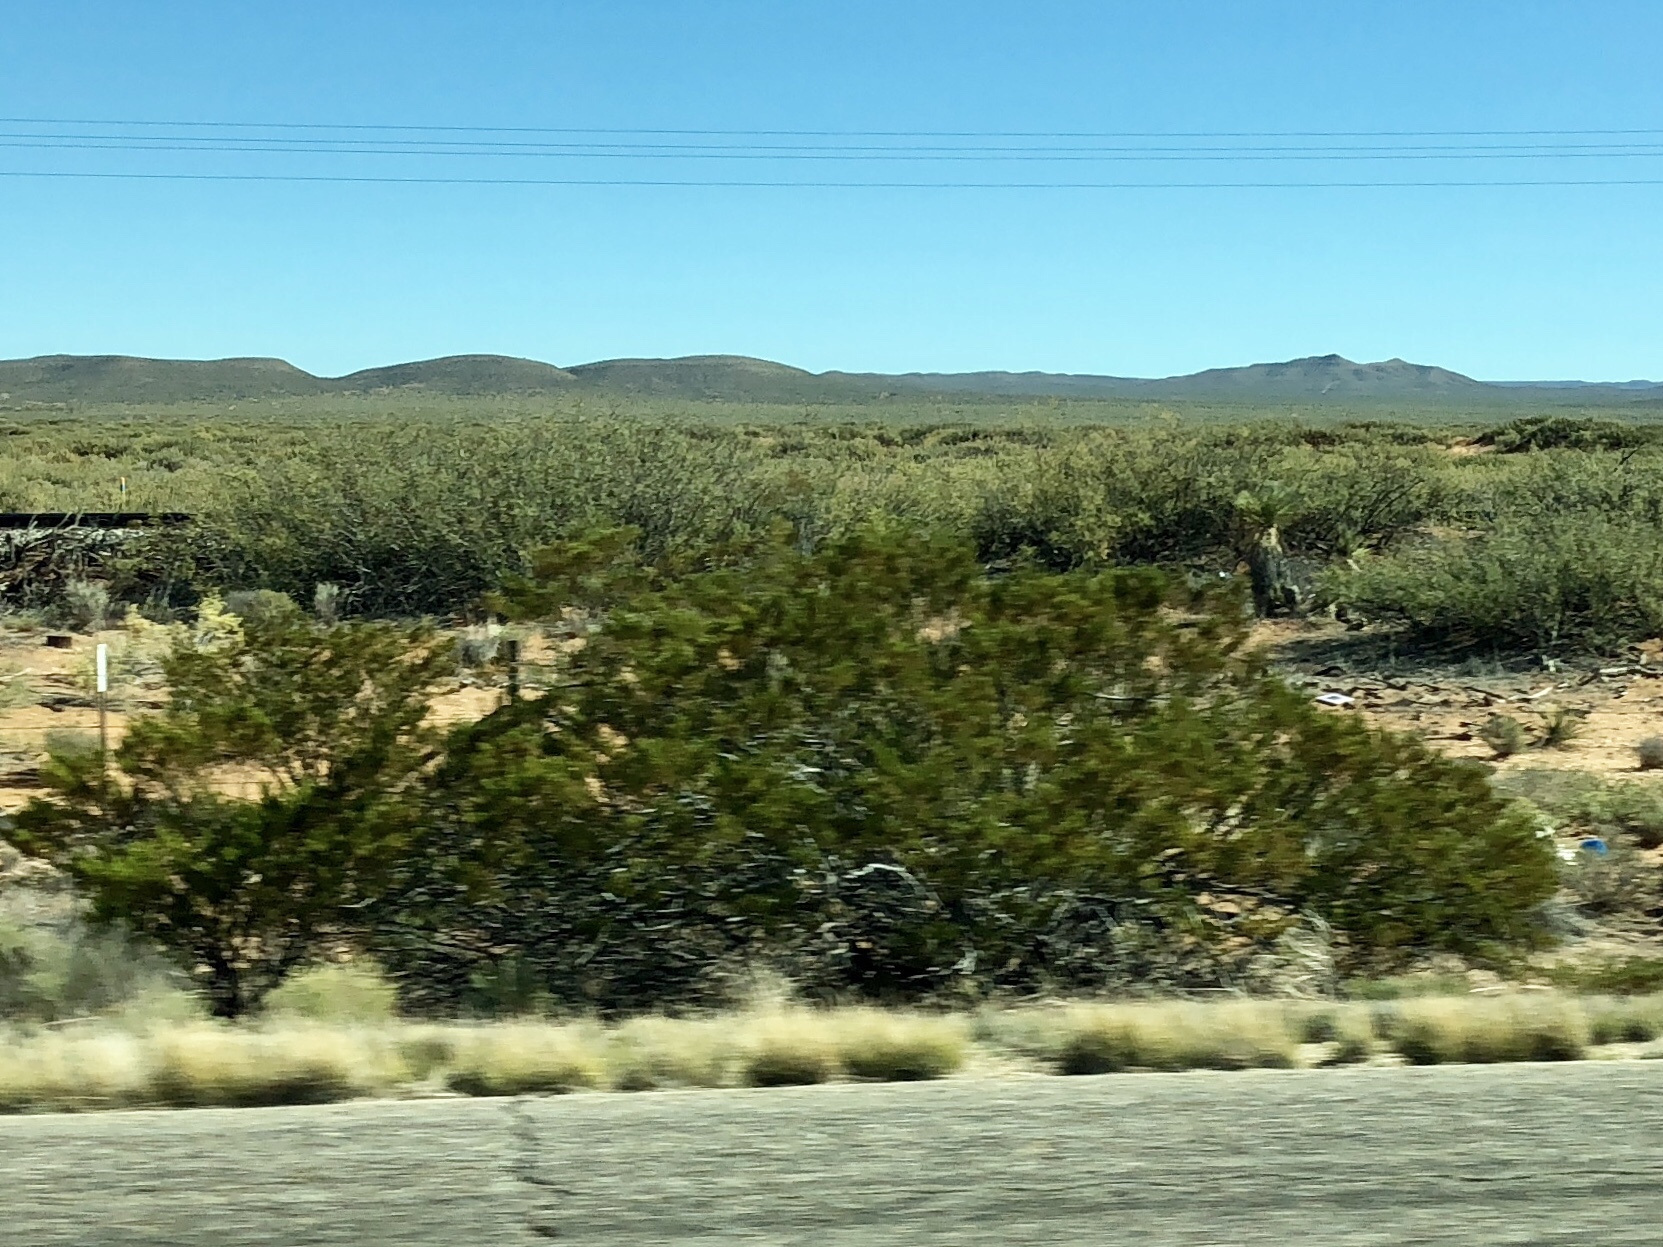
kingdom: Plantae
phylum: Tracheophyta
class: Magnoliopsida
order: Zygophyllales
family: Zygophyllaceae
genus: Larrea
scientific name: Larrea tridentata
